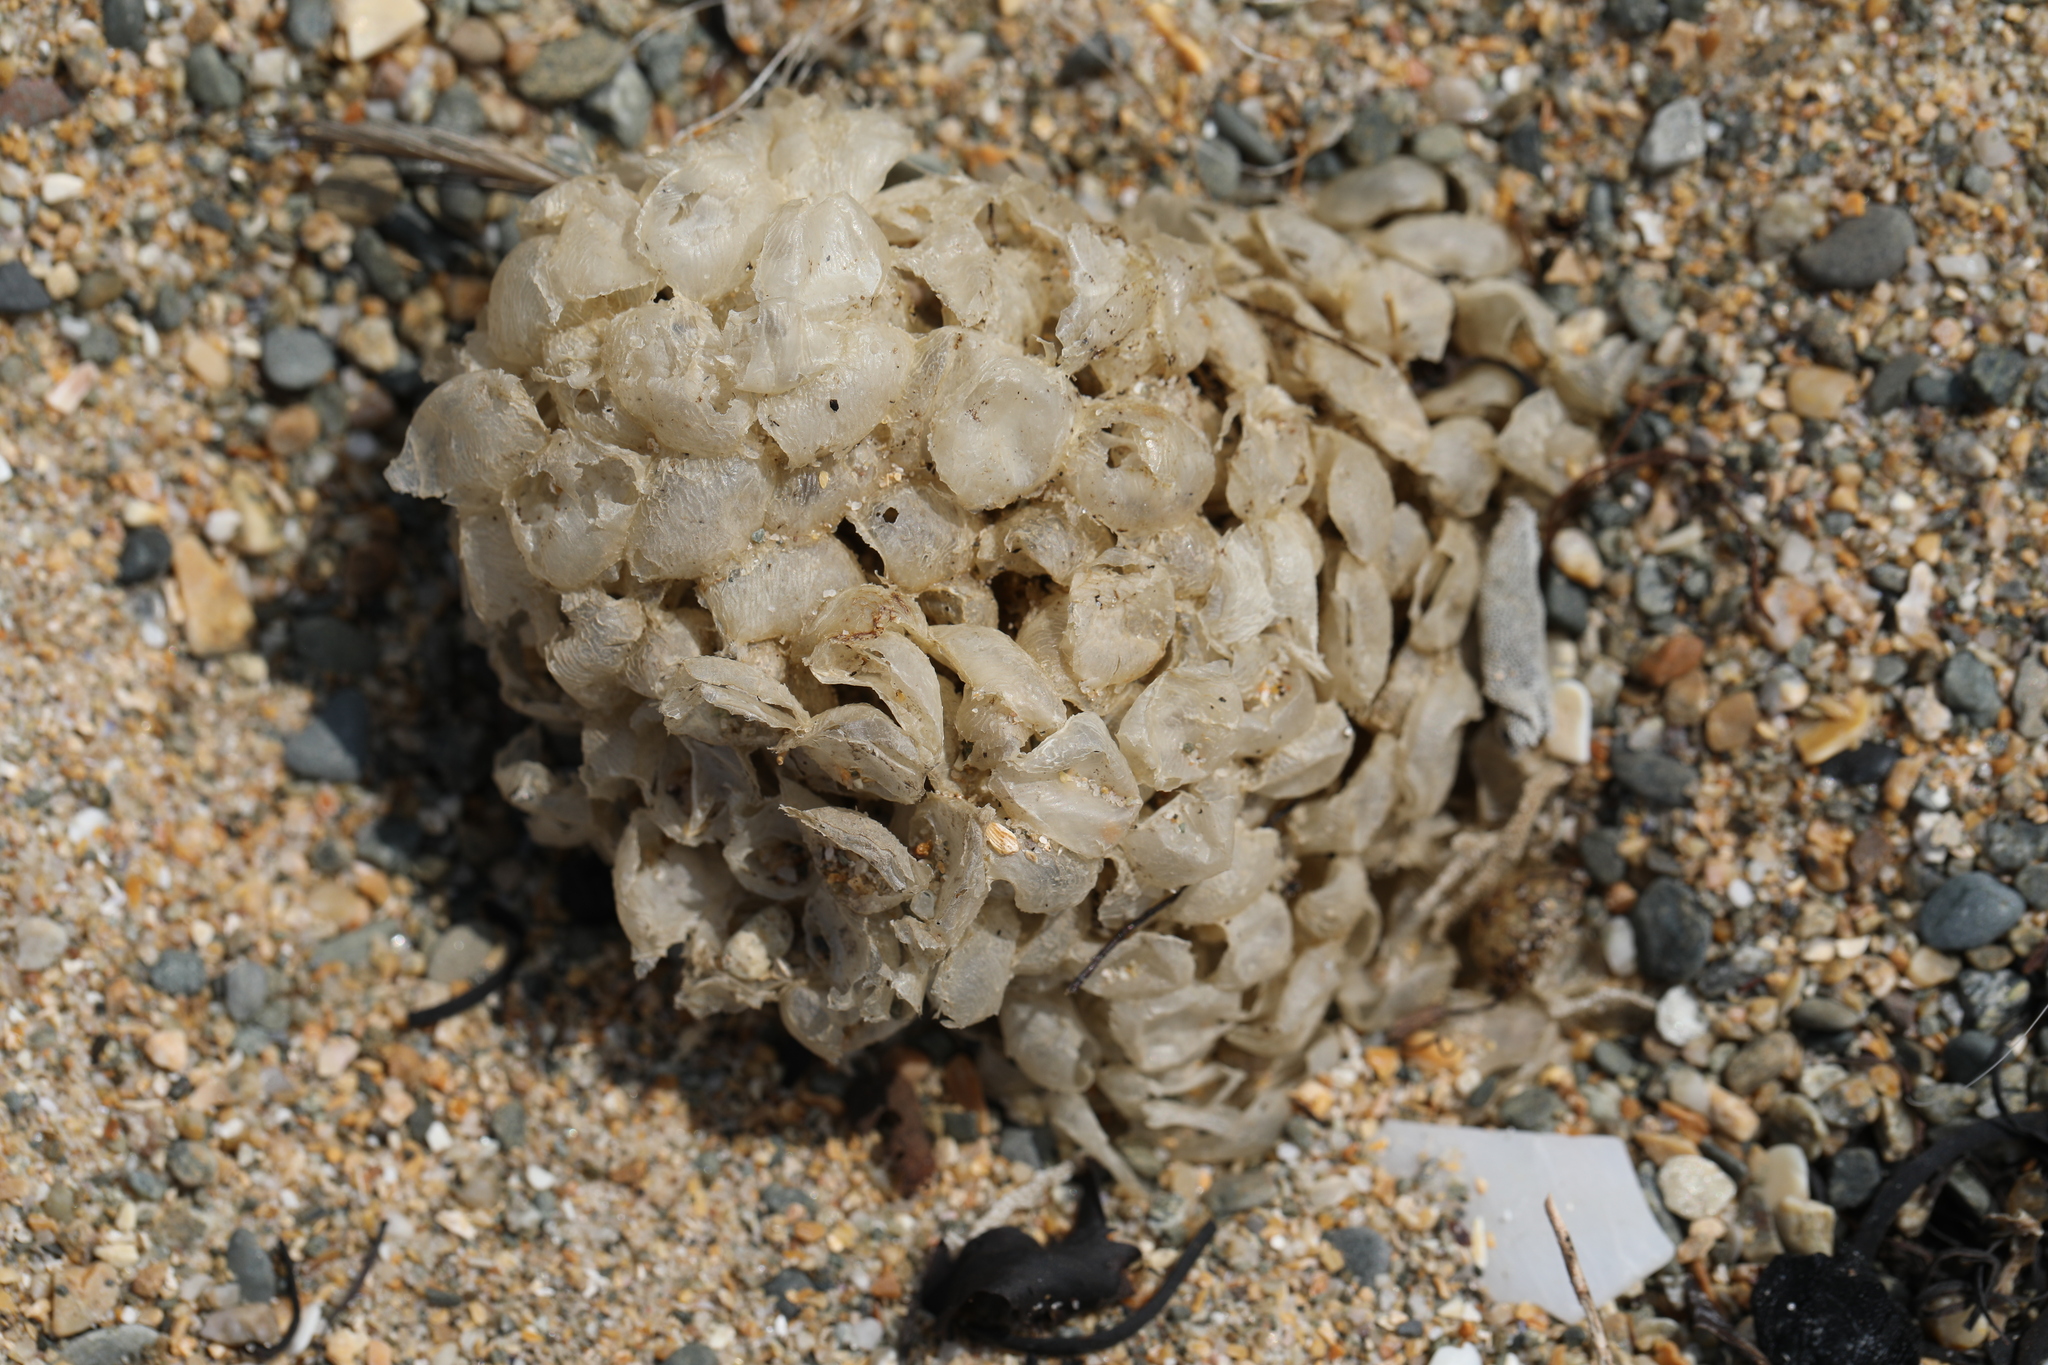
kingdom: Animalia
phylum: Mollusca
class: Gastropoda
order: Neogastropoda
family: Buccinidae
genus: Buccinum
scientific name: Buccinum undatum
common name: Common whelk
